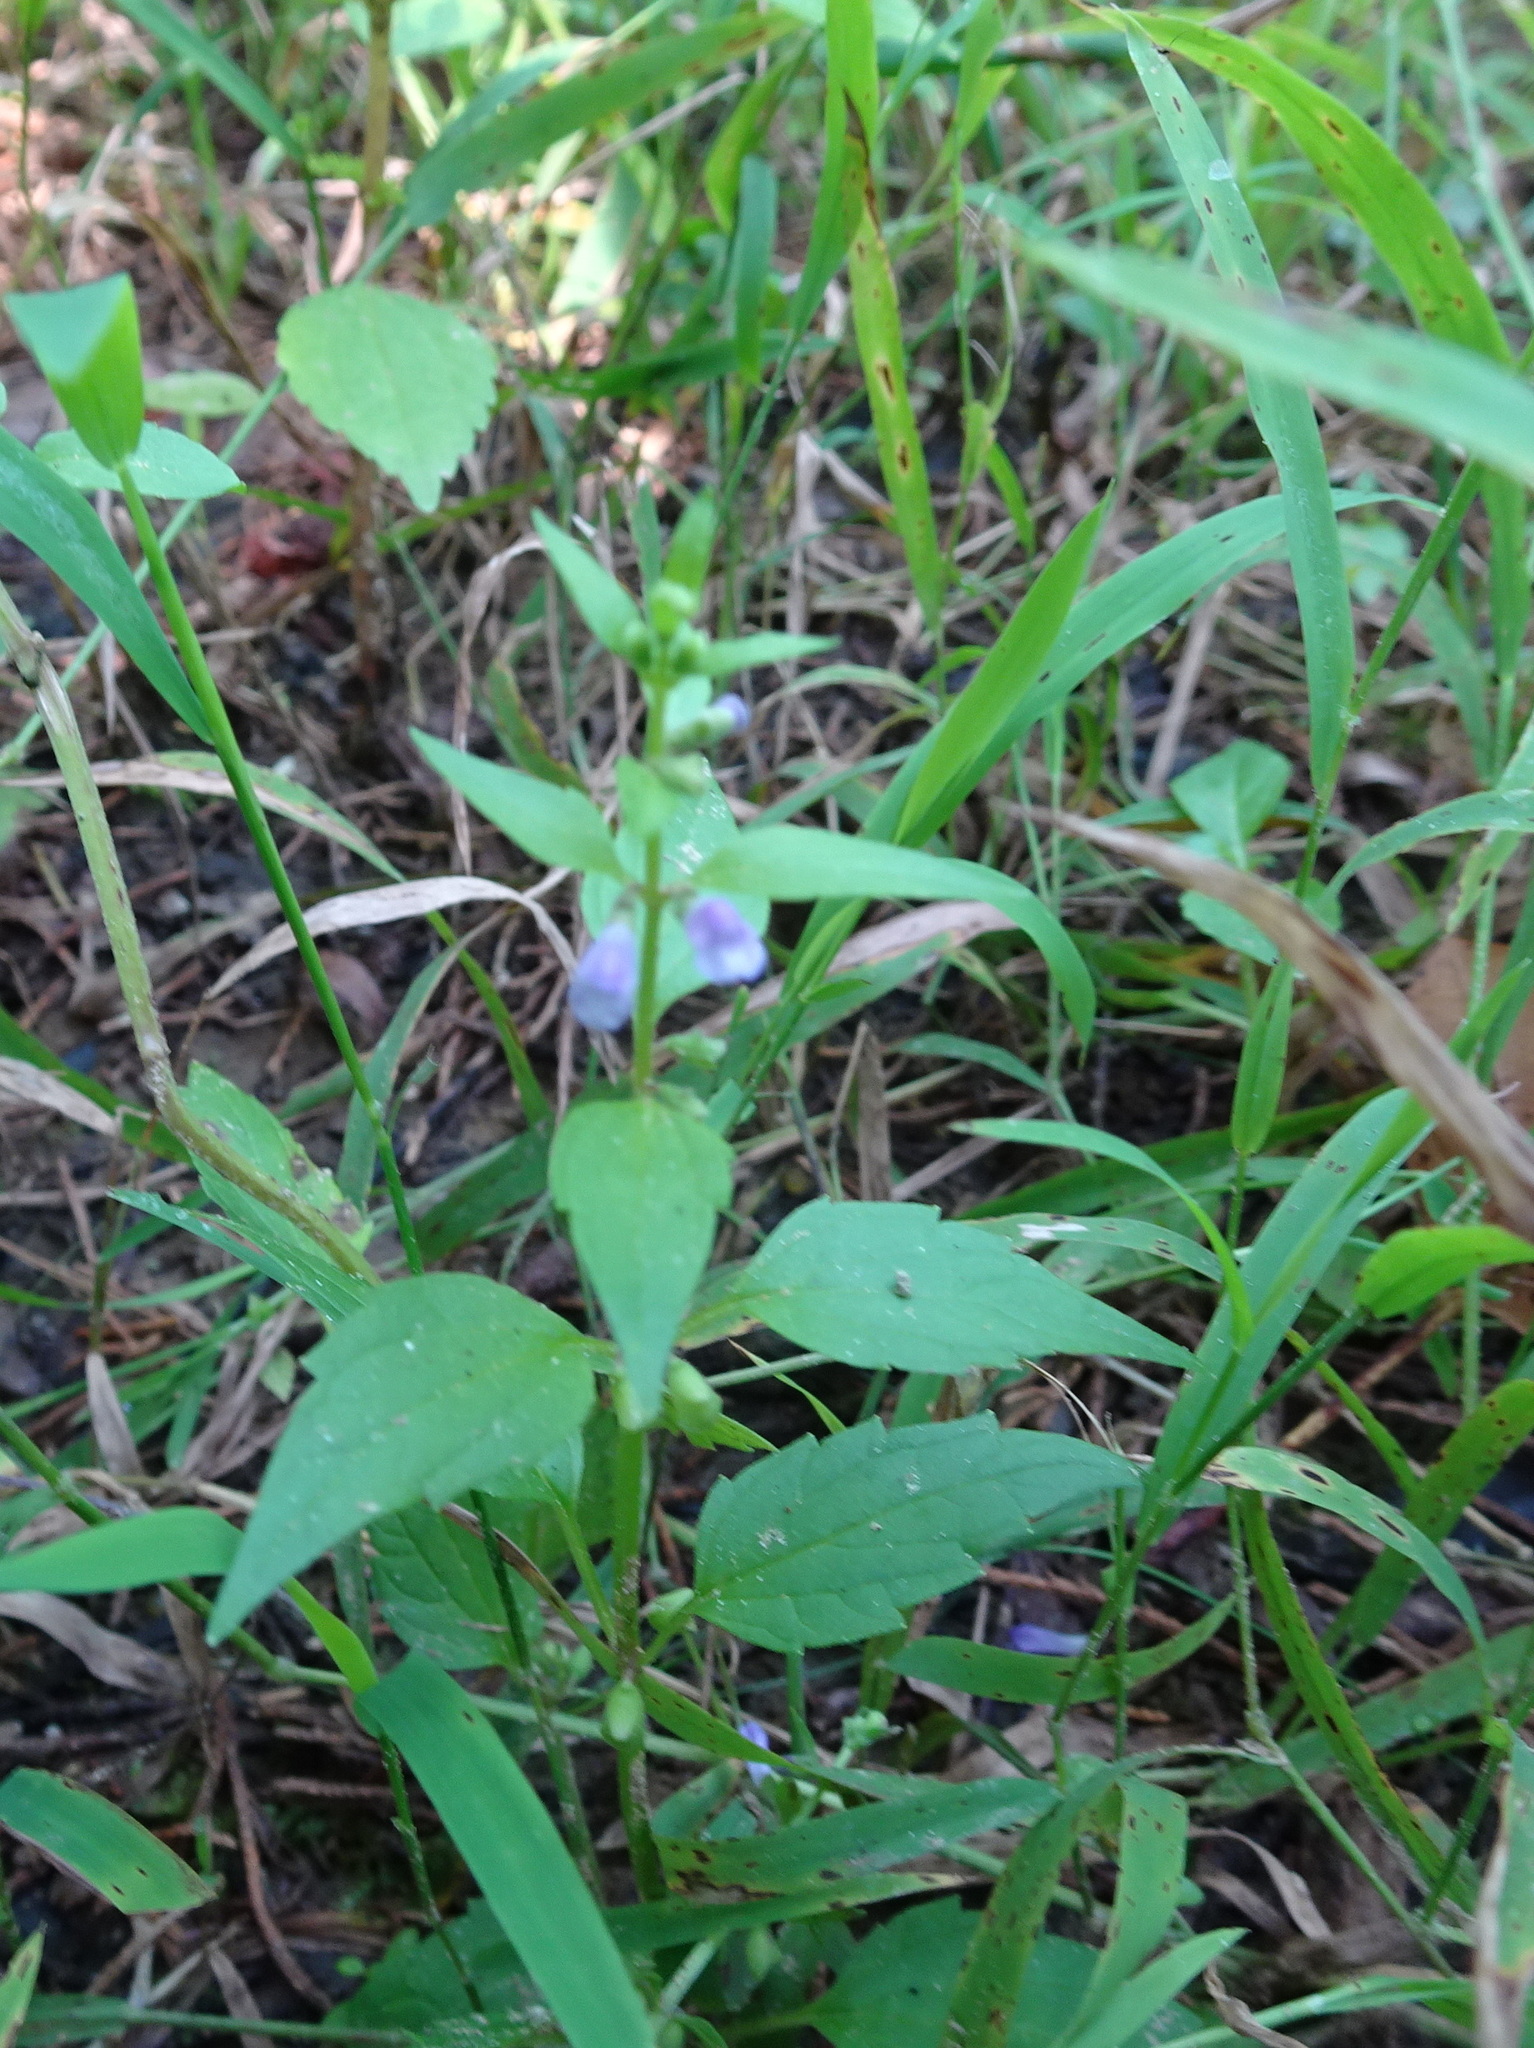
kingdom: Plantae
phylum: Tracheophyta
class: Magnoliopsida
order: Lamiales
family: Lamiaceae
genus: Scutellaria
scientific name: Scutellaria lateriflora
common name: Blue skullcap
